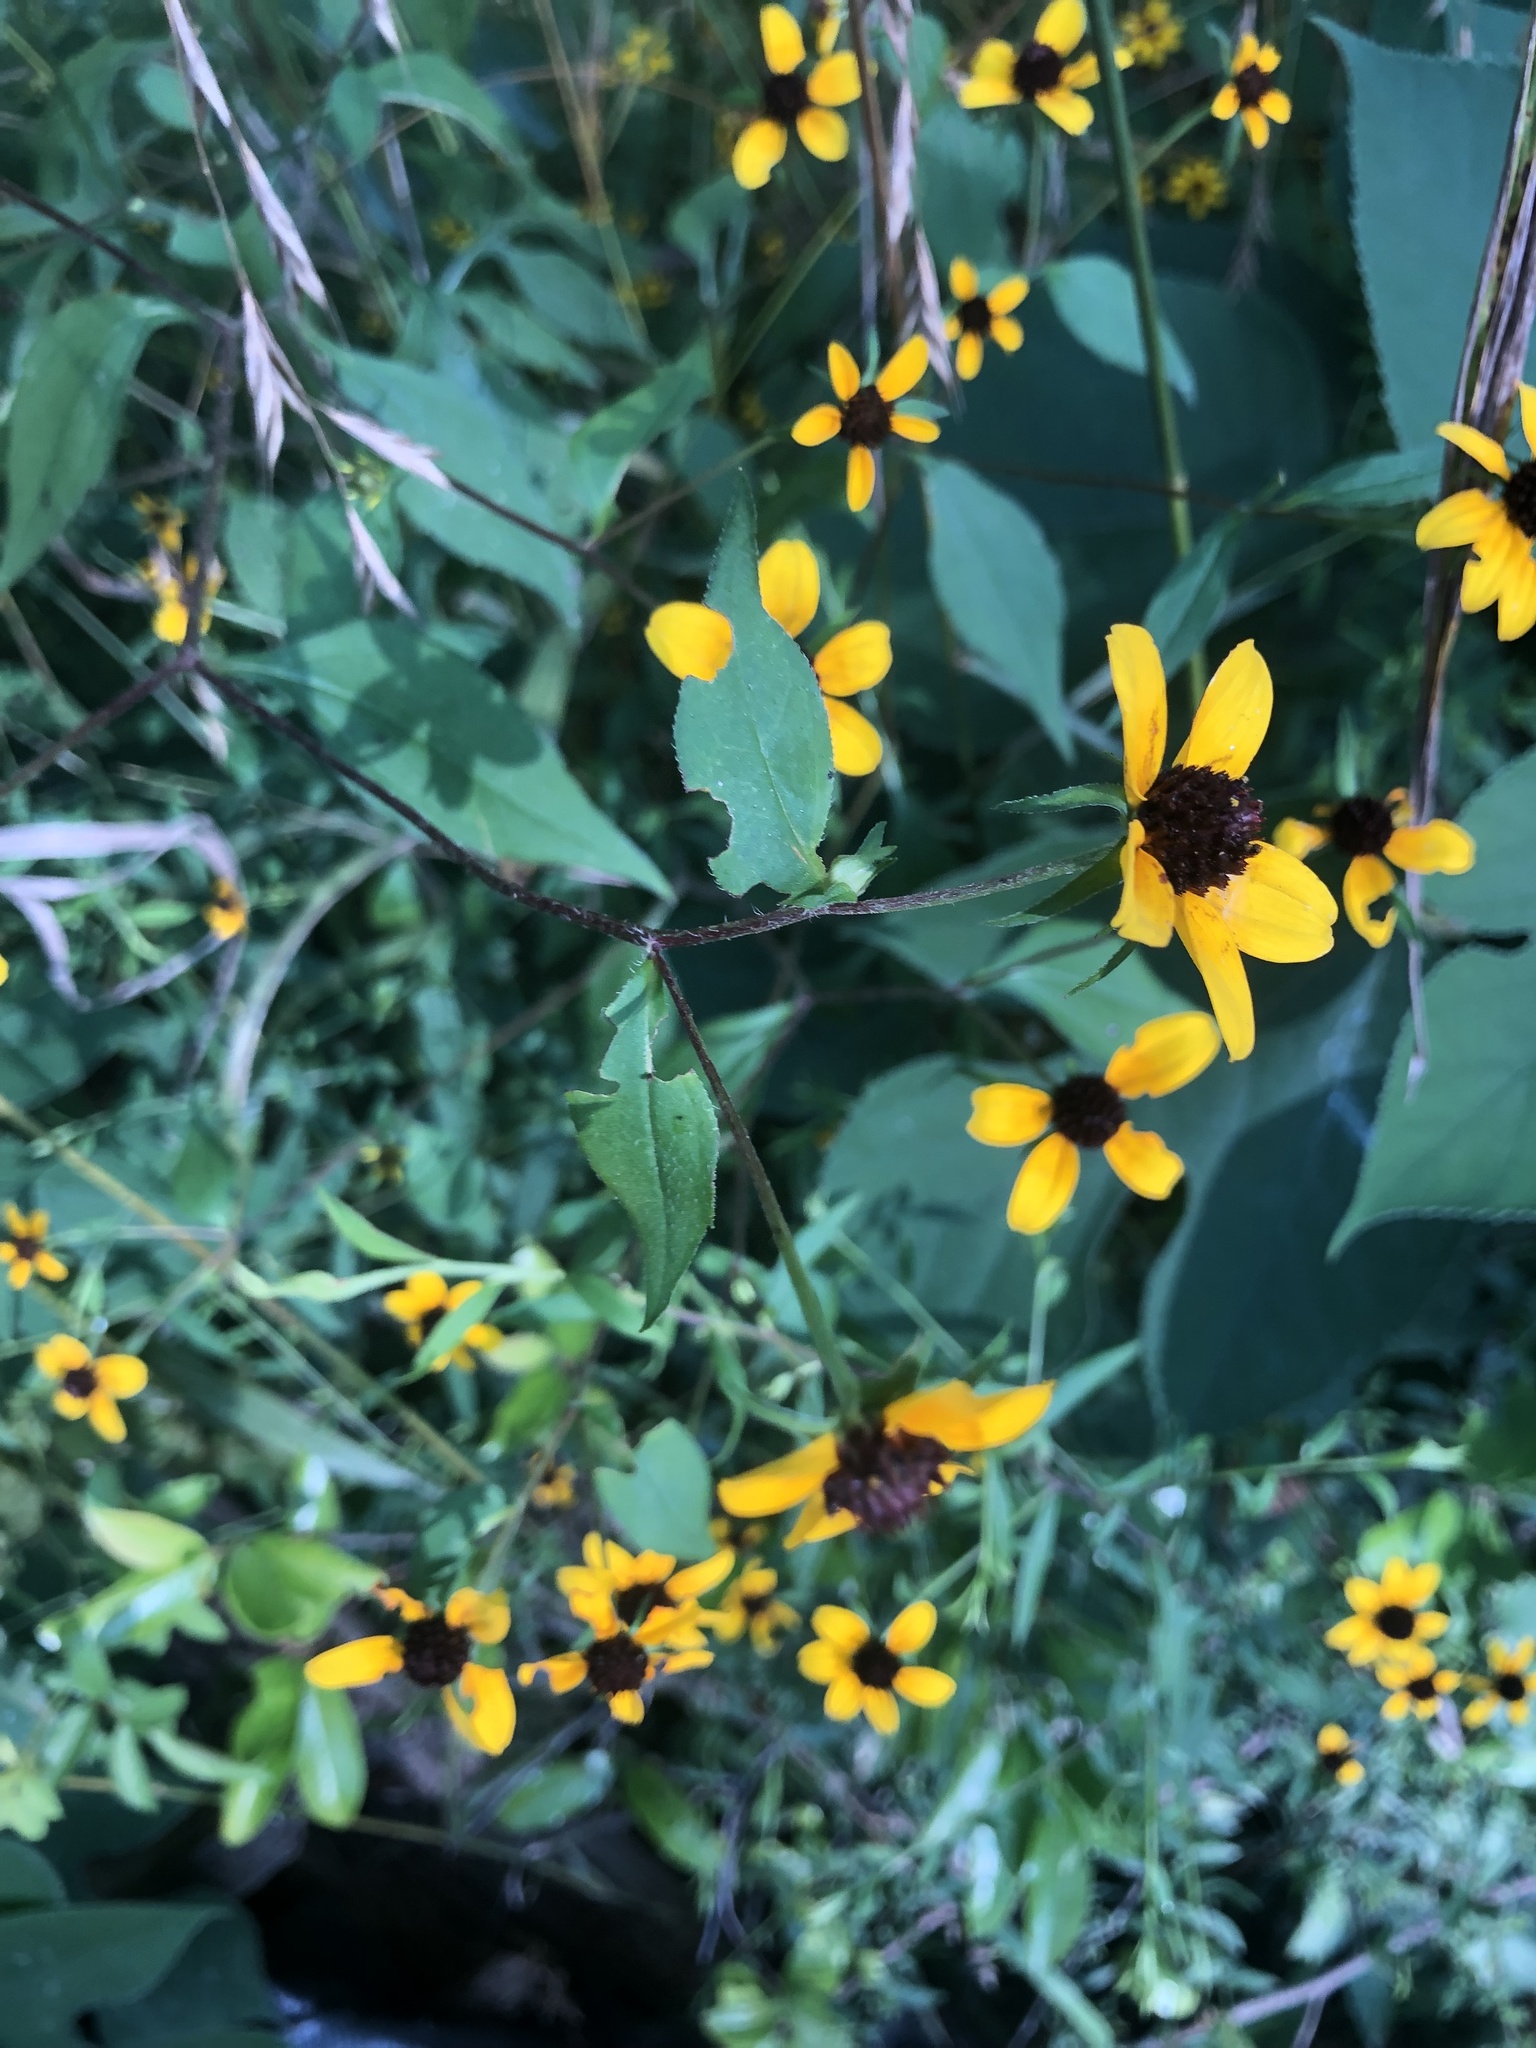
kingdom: Plantae
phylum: Tracheophyta
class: Magnoliopsida
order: Asterales
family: Asteraceae
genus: Rudbeckia
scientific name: Rudbeckia triloba
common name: Thin-leaved coneflower
